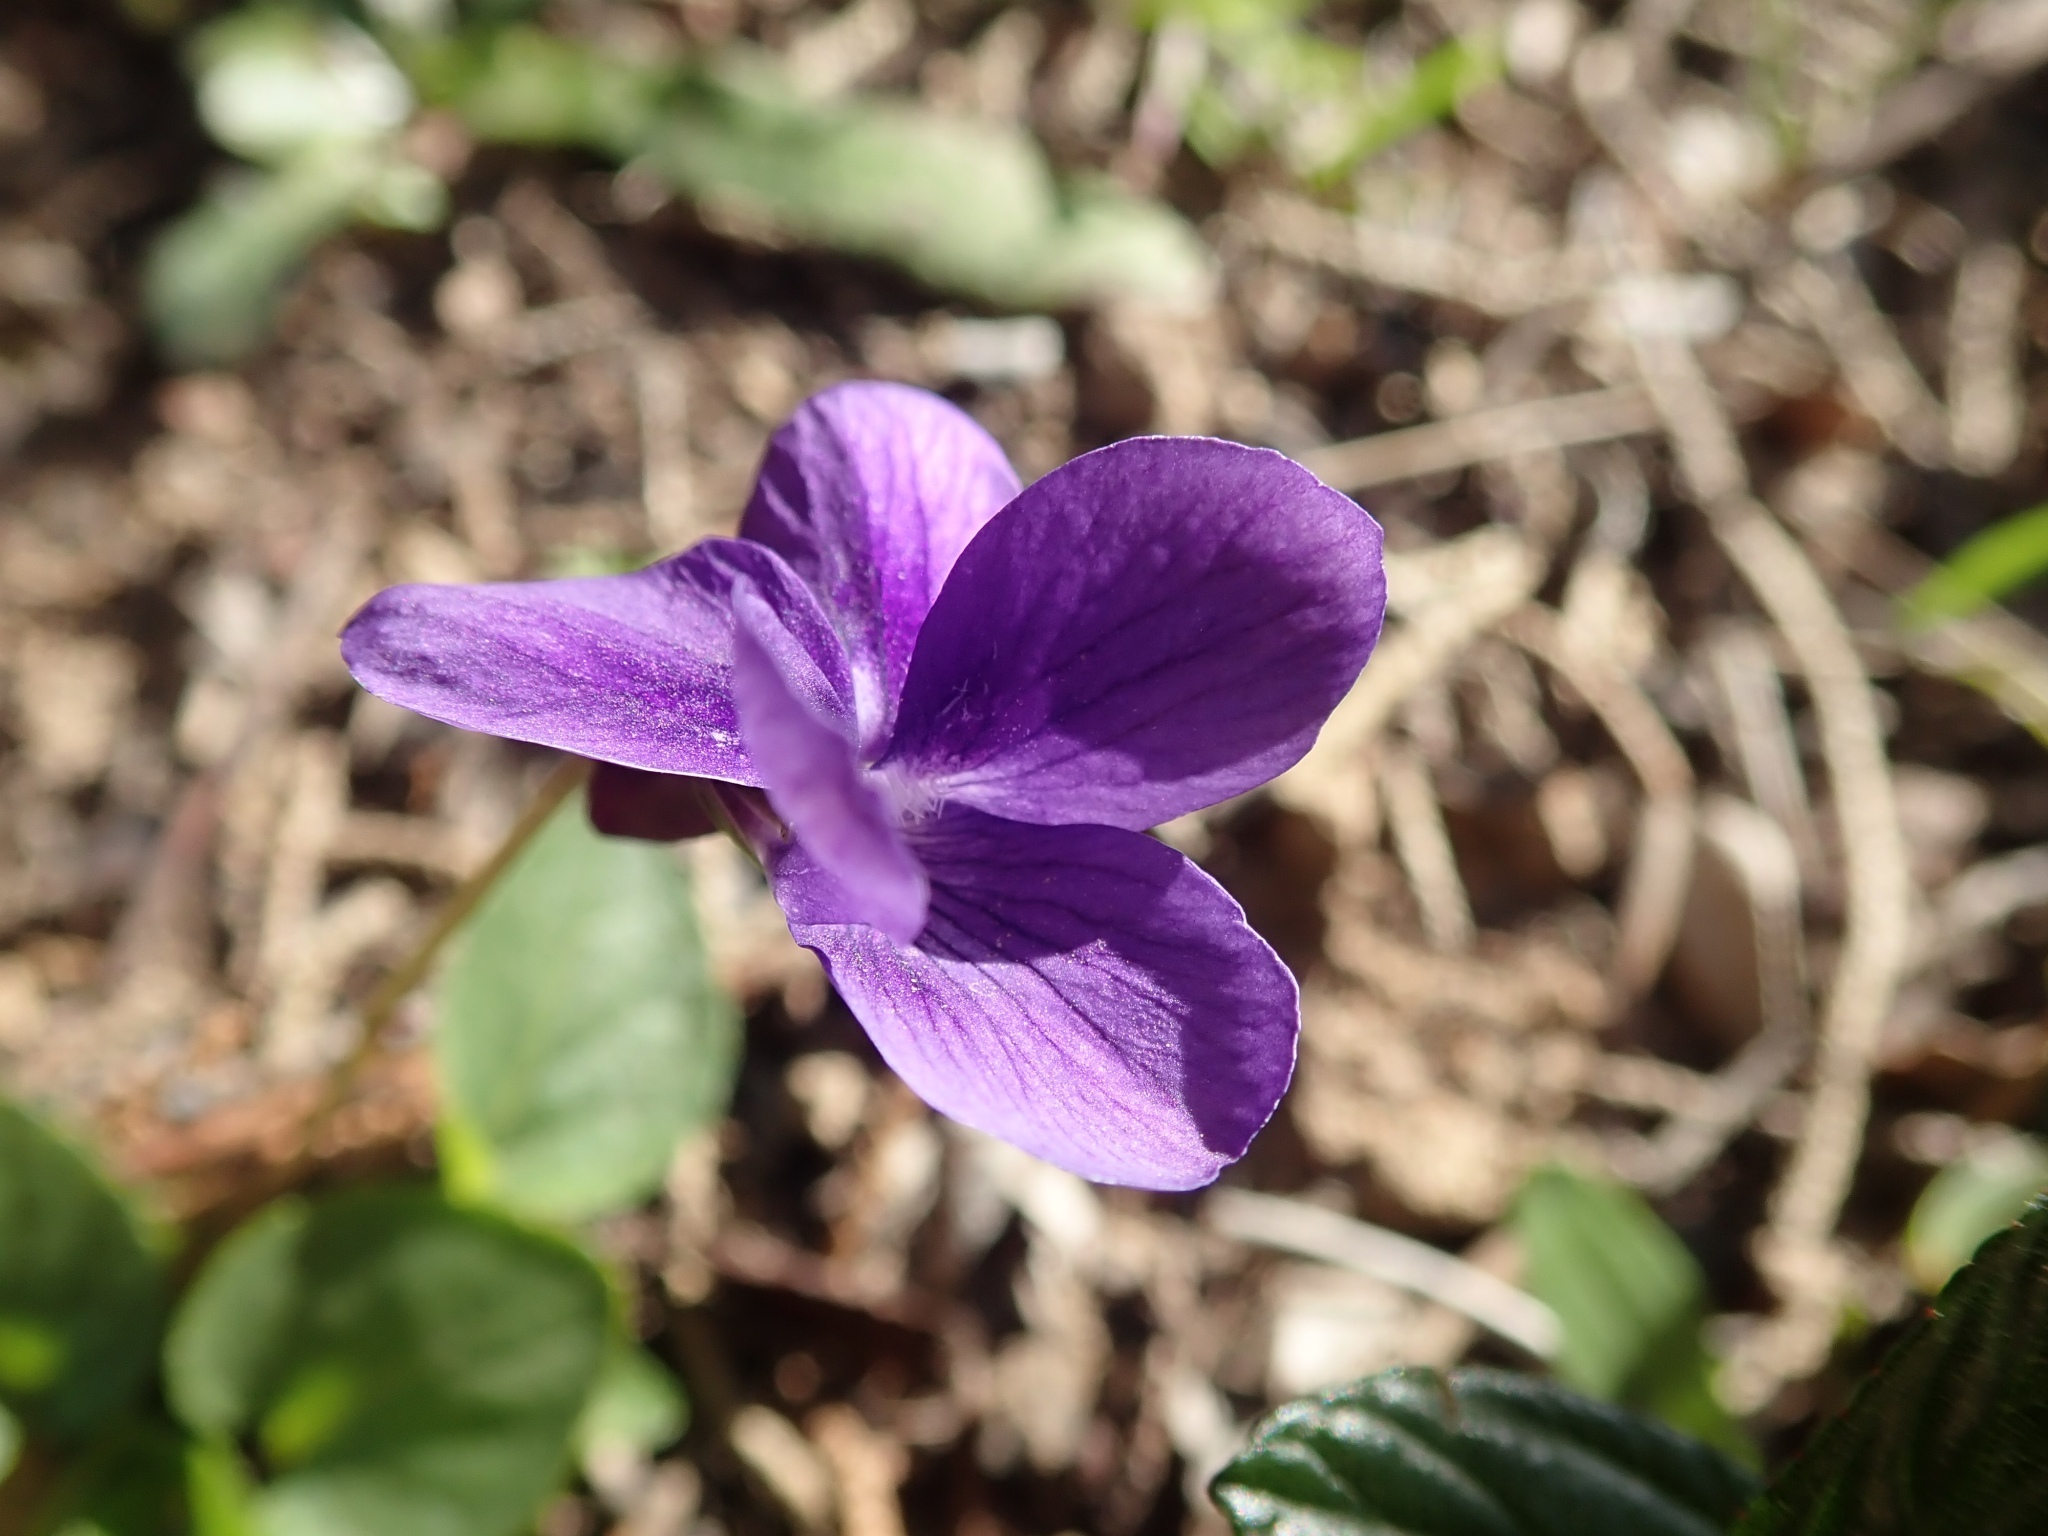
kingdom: Plantae
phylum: Tracheophyta
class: Magnoliopsida
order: Malpighiales
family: Violaceae
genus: Viola
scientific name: Viola adunca
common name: Sand violet
